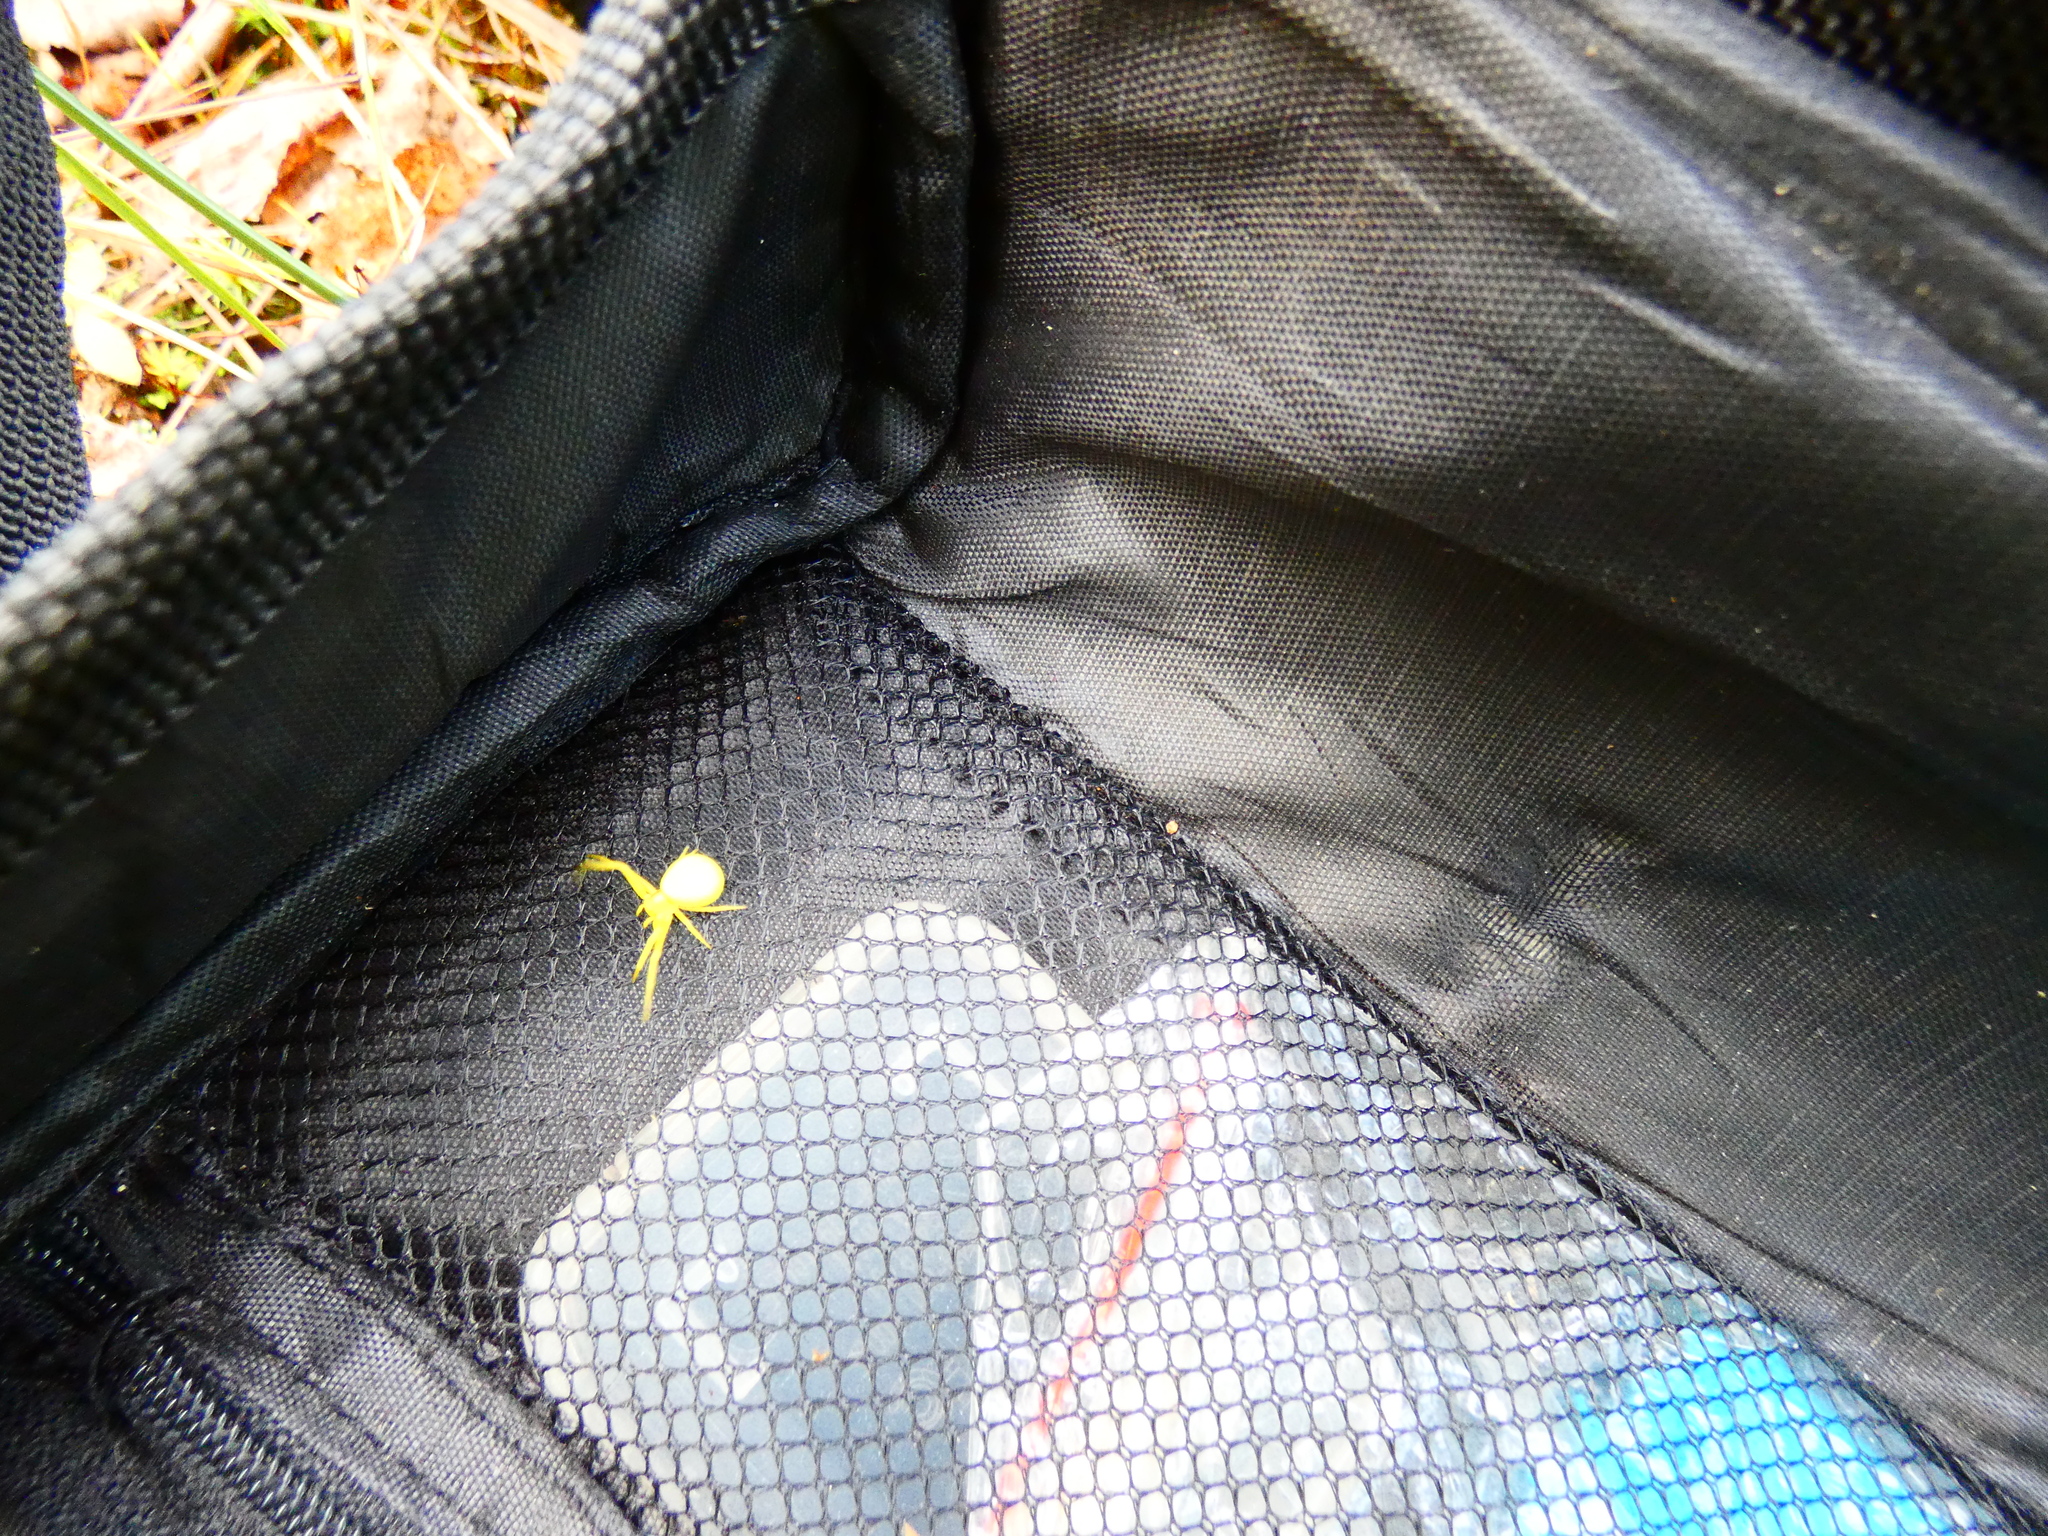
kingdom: Animalia
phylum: Arthropoda
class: Arachnida
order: Araneae
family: Thomisidae
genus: Misumena
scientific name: Misumena vatia
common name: Goldenrod crab spider
